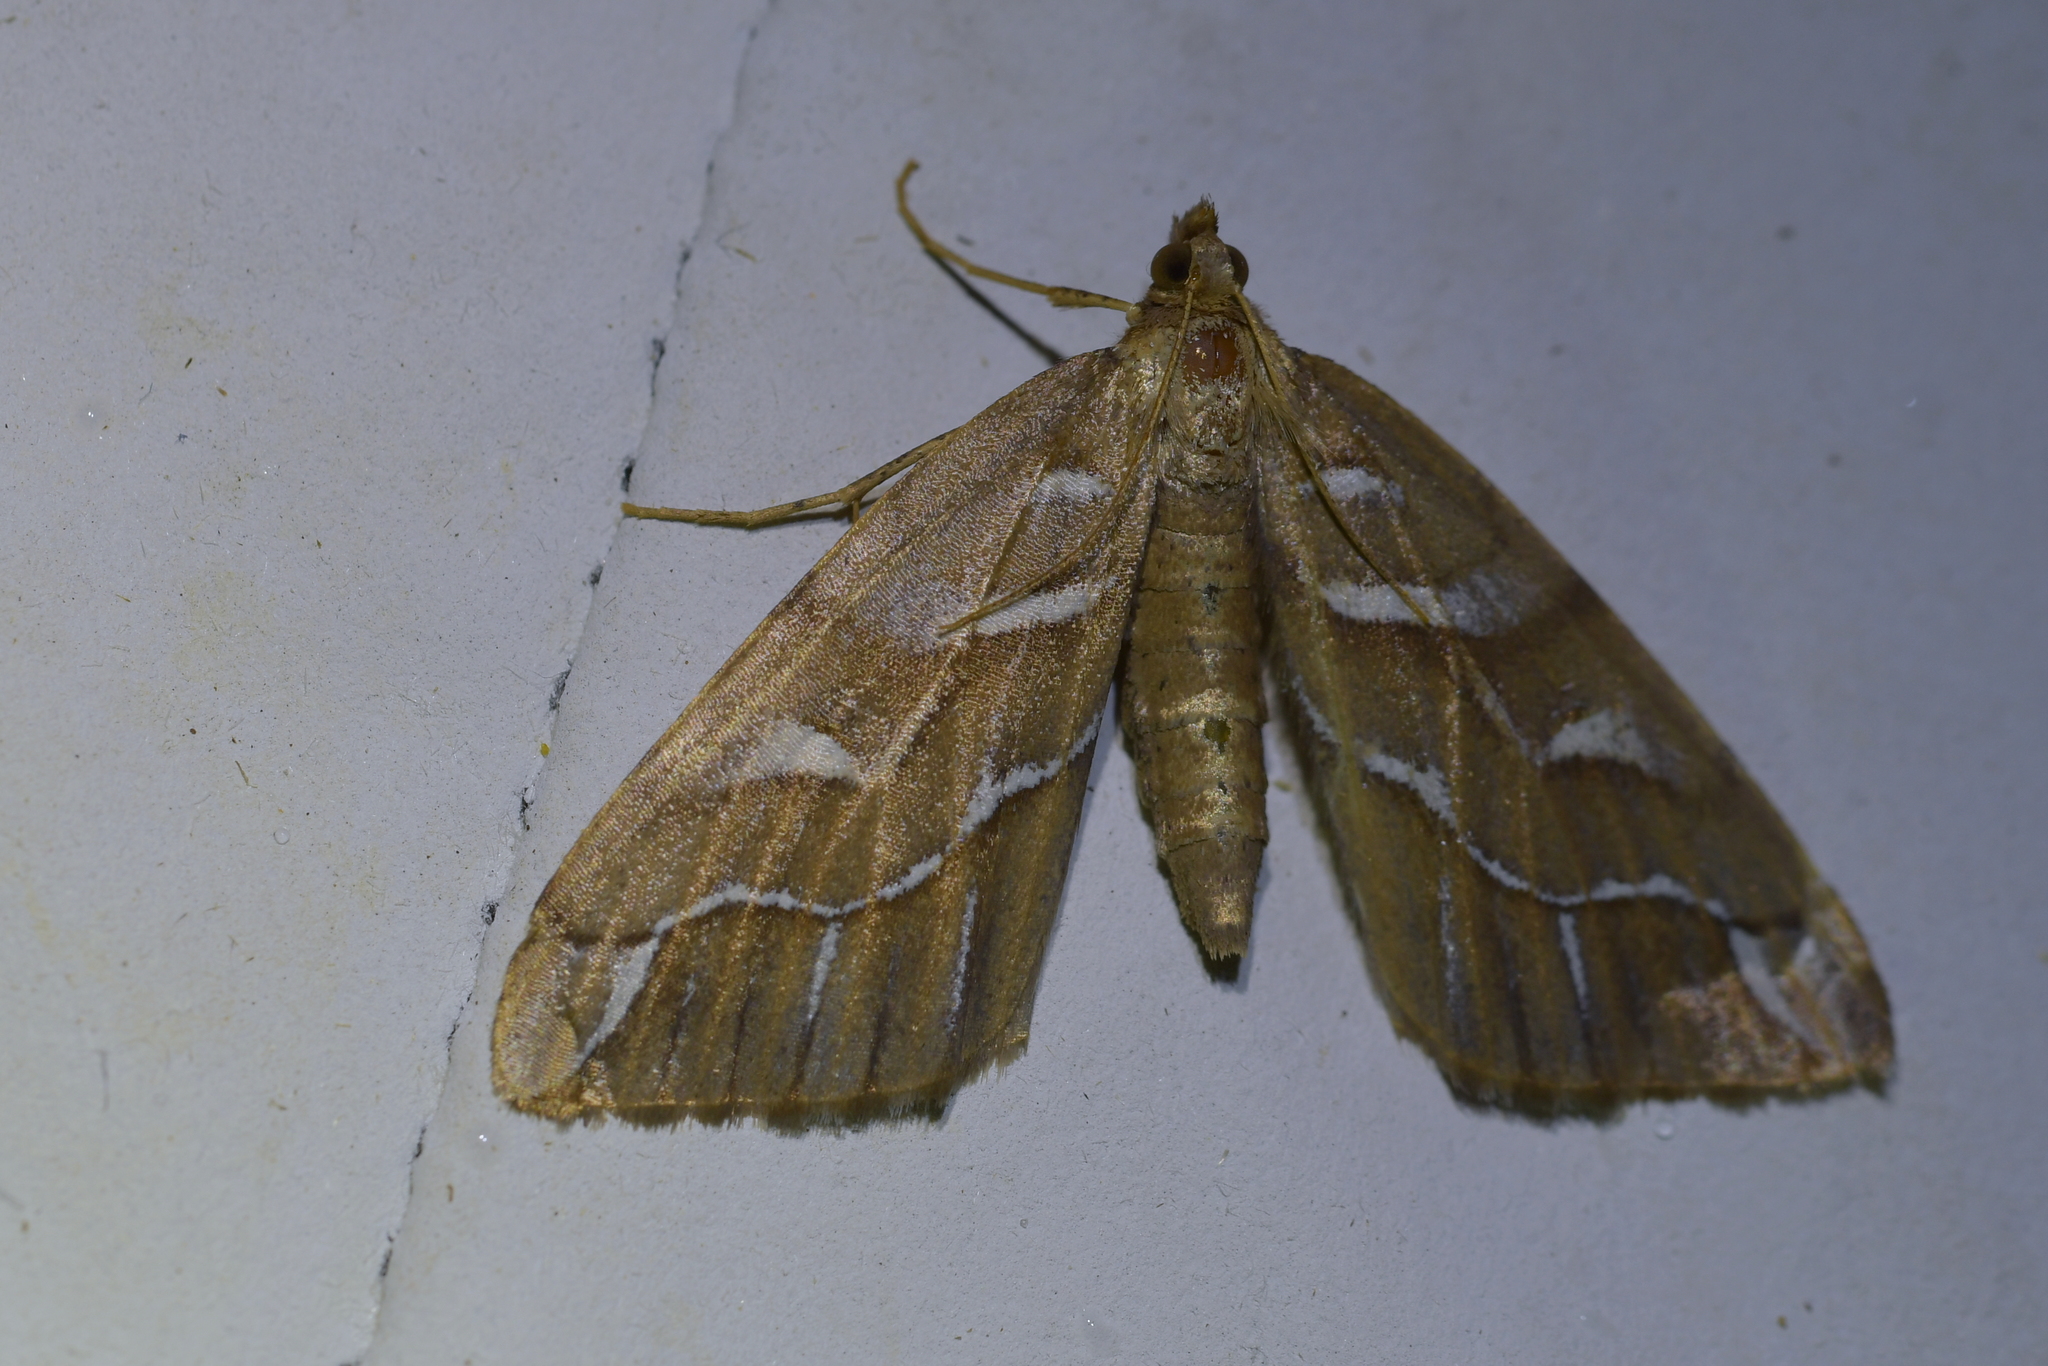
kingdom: Animalia
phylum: Arthropoda
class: Insecta
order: Lepidoptera
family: Geometridae
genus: Chalastra
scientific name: Chalastra aristarcha
